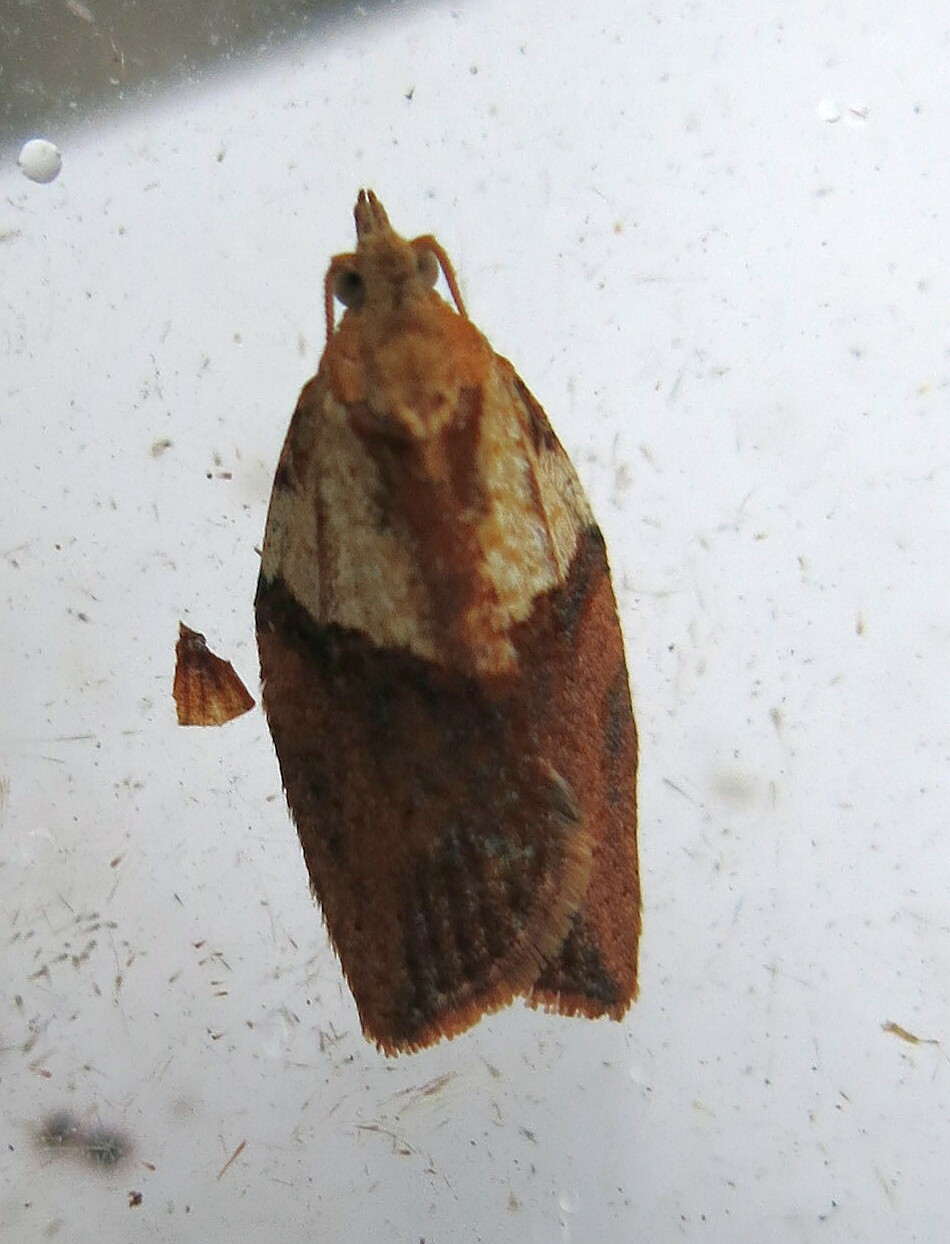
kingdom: Animalia
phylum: Arthropoda
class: Insecta
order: Lepidoptera
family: Tortricidae
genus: Epiphyas
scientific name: Epiphyas postvittana
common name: Light brown apple moth
